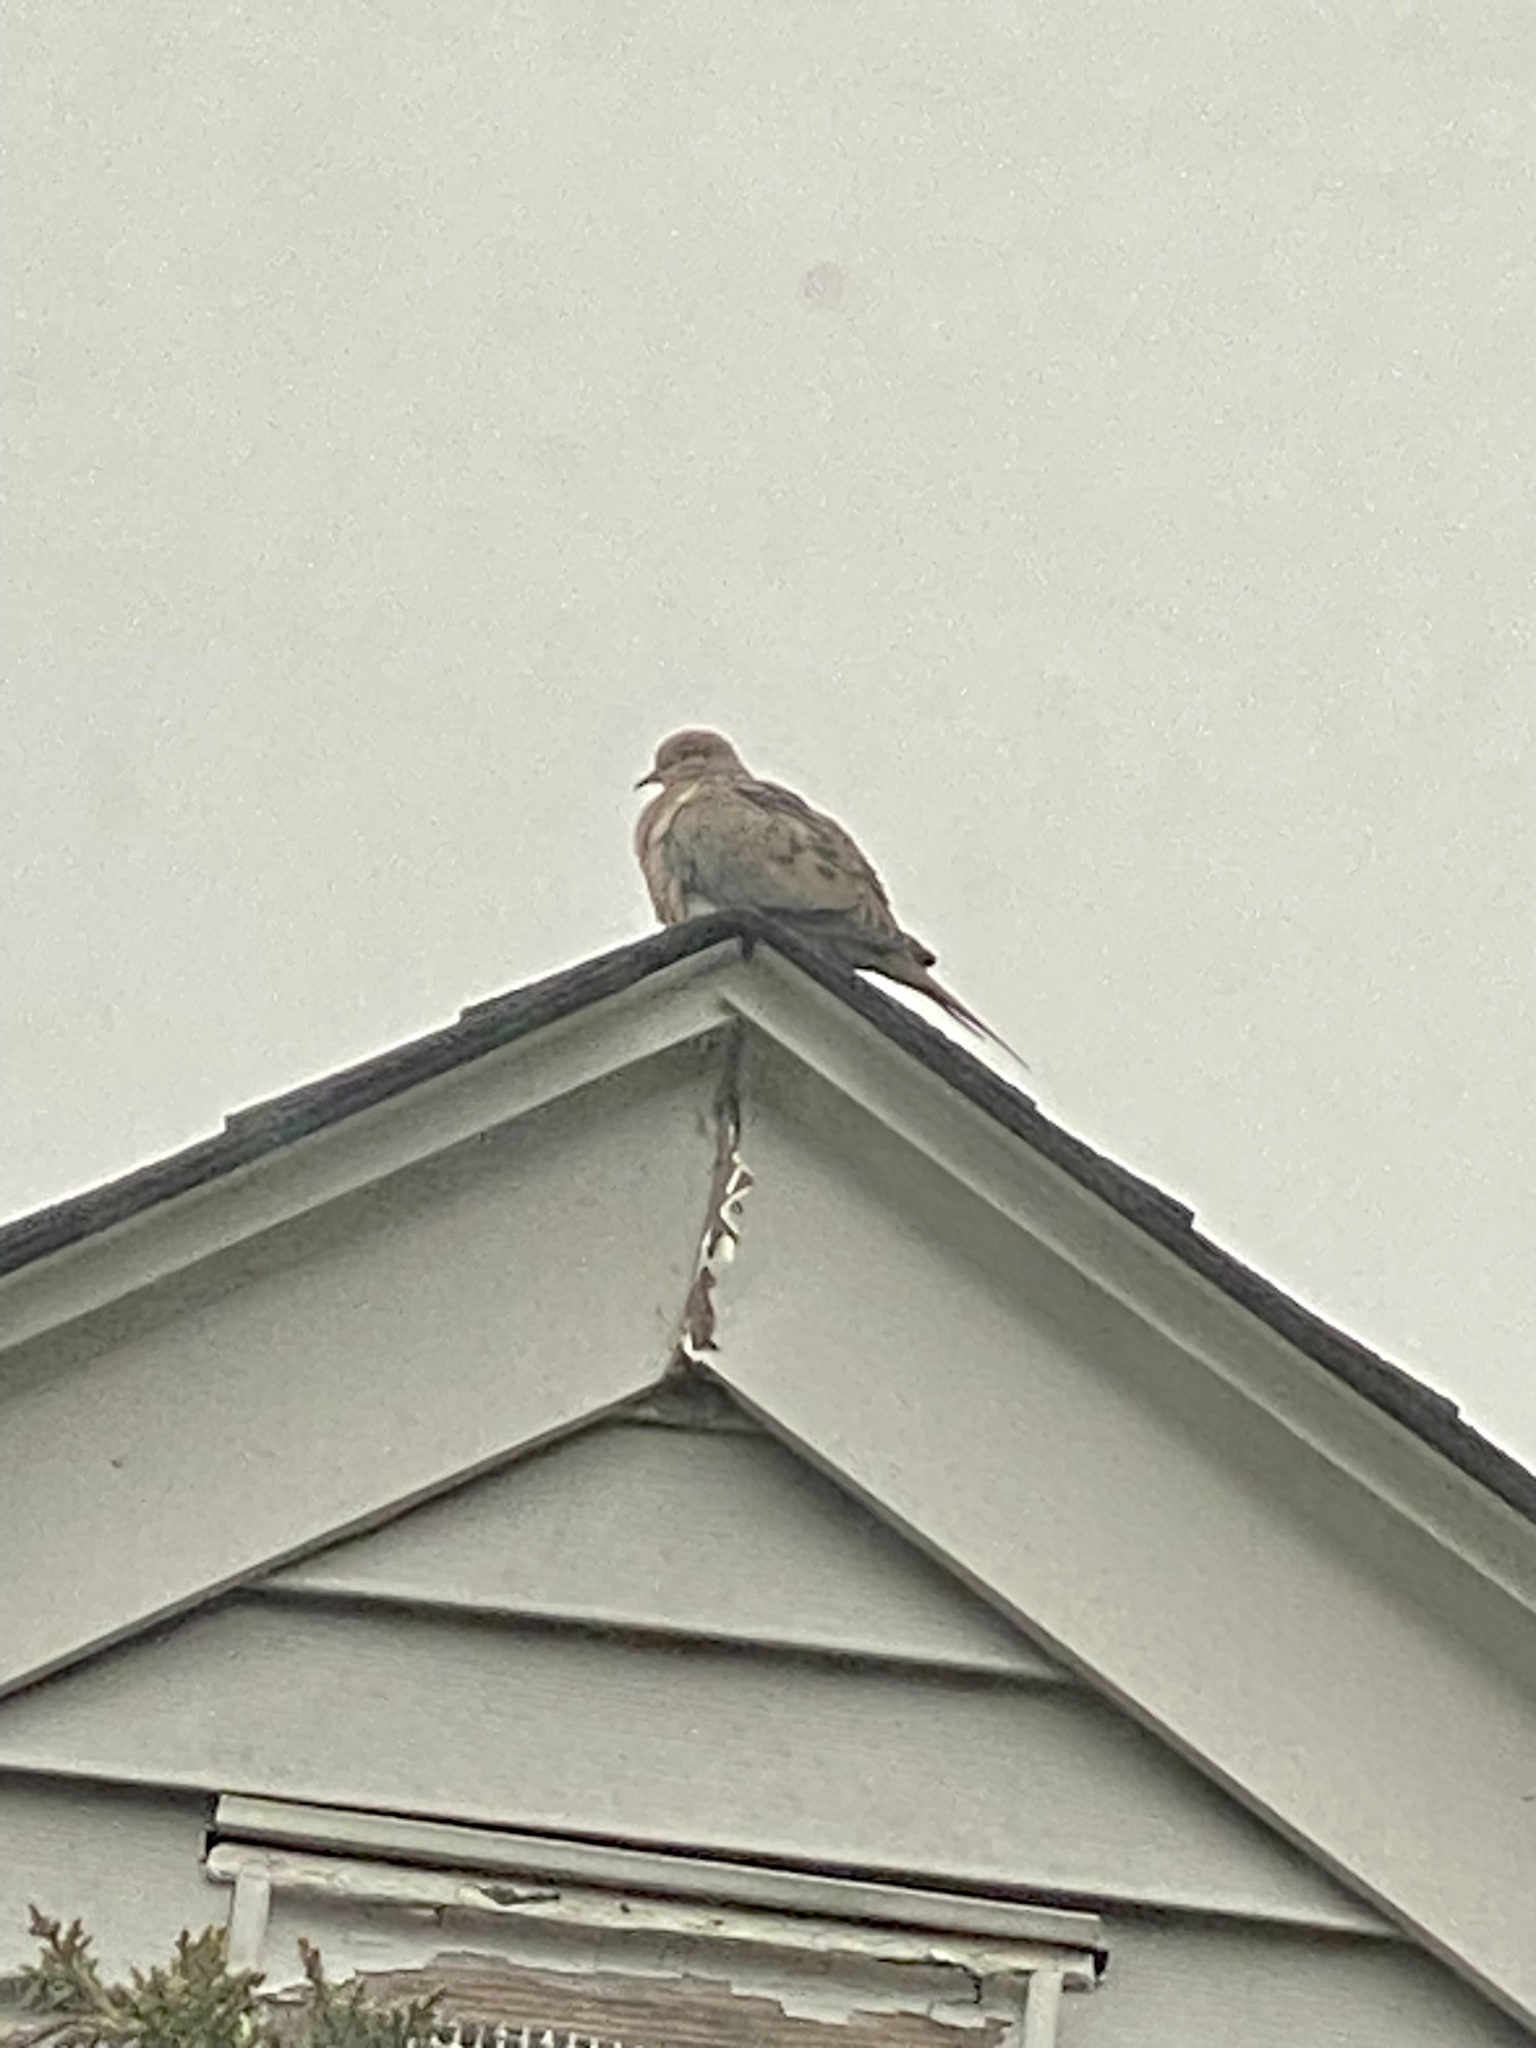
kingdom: Animalia
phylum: Chordata
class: Aves
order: Columbiformes
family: Columbidae
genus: Zenaida
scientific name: Zenaida macroura
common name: Mourning dove
